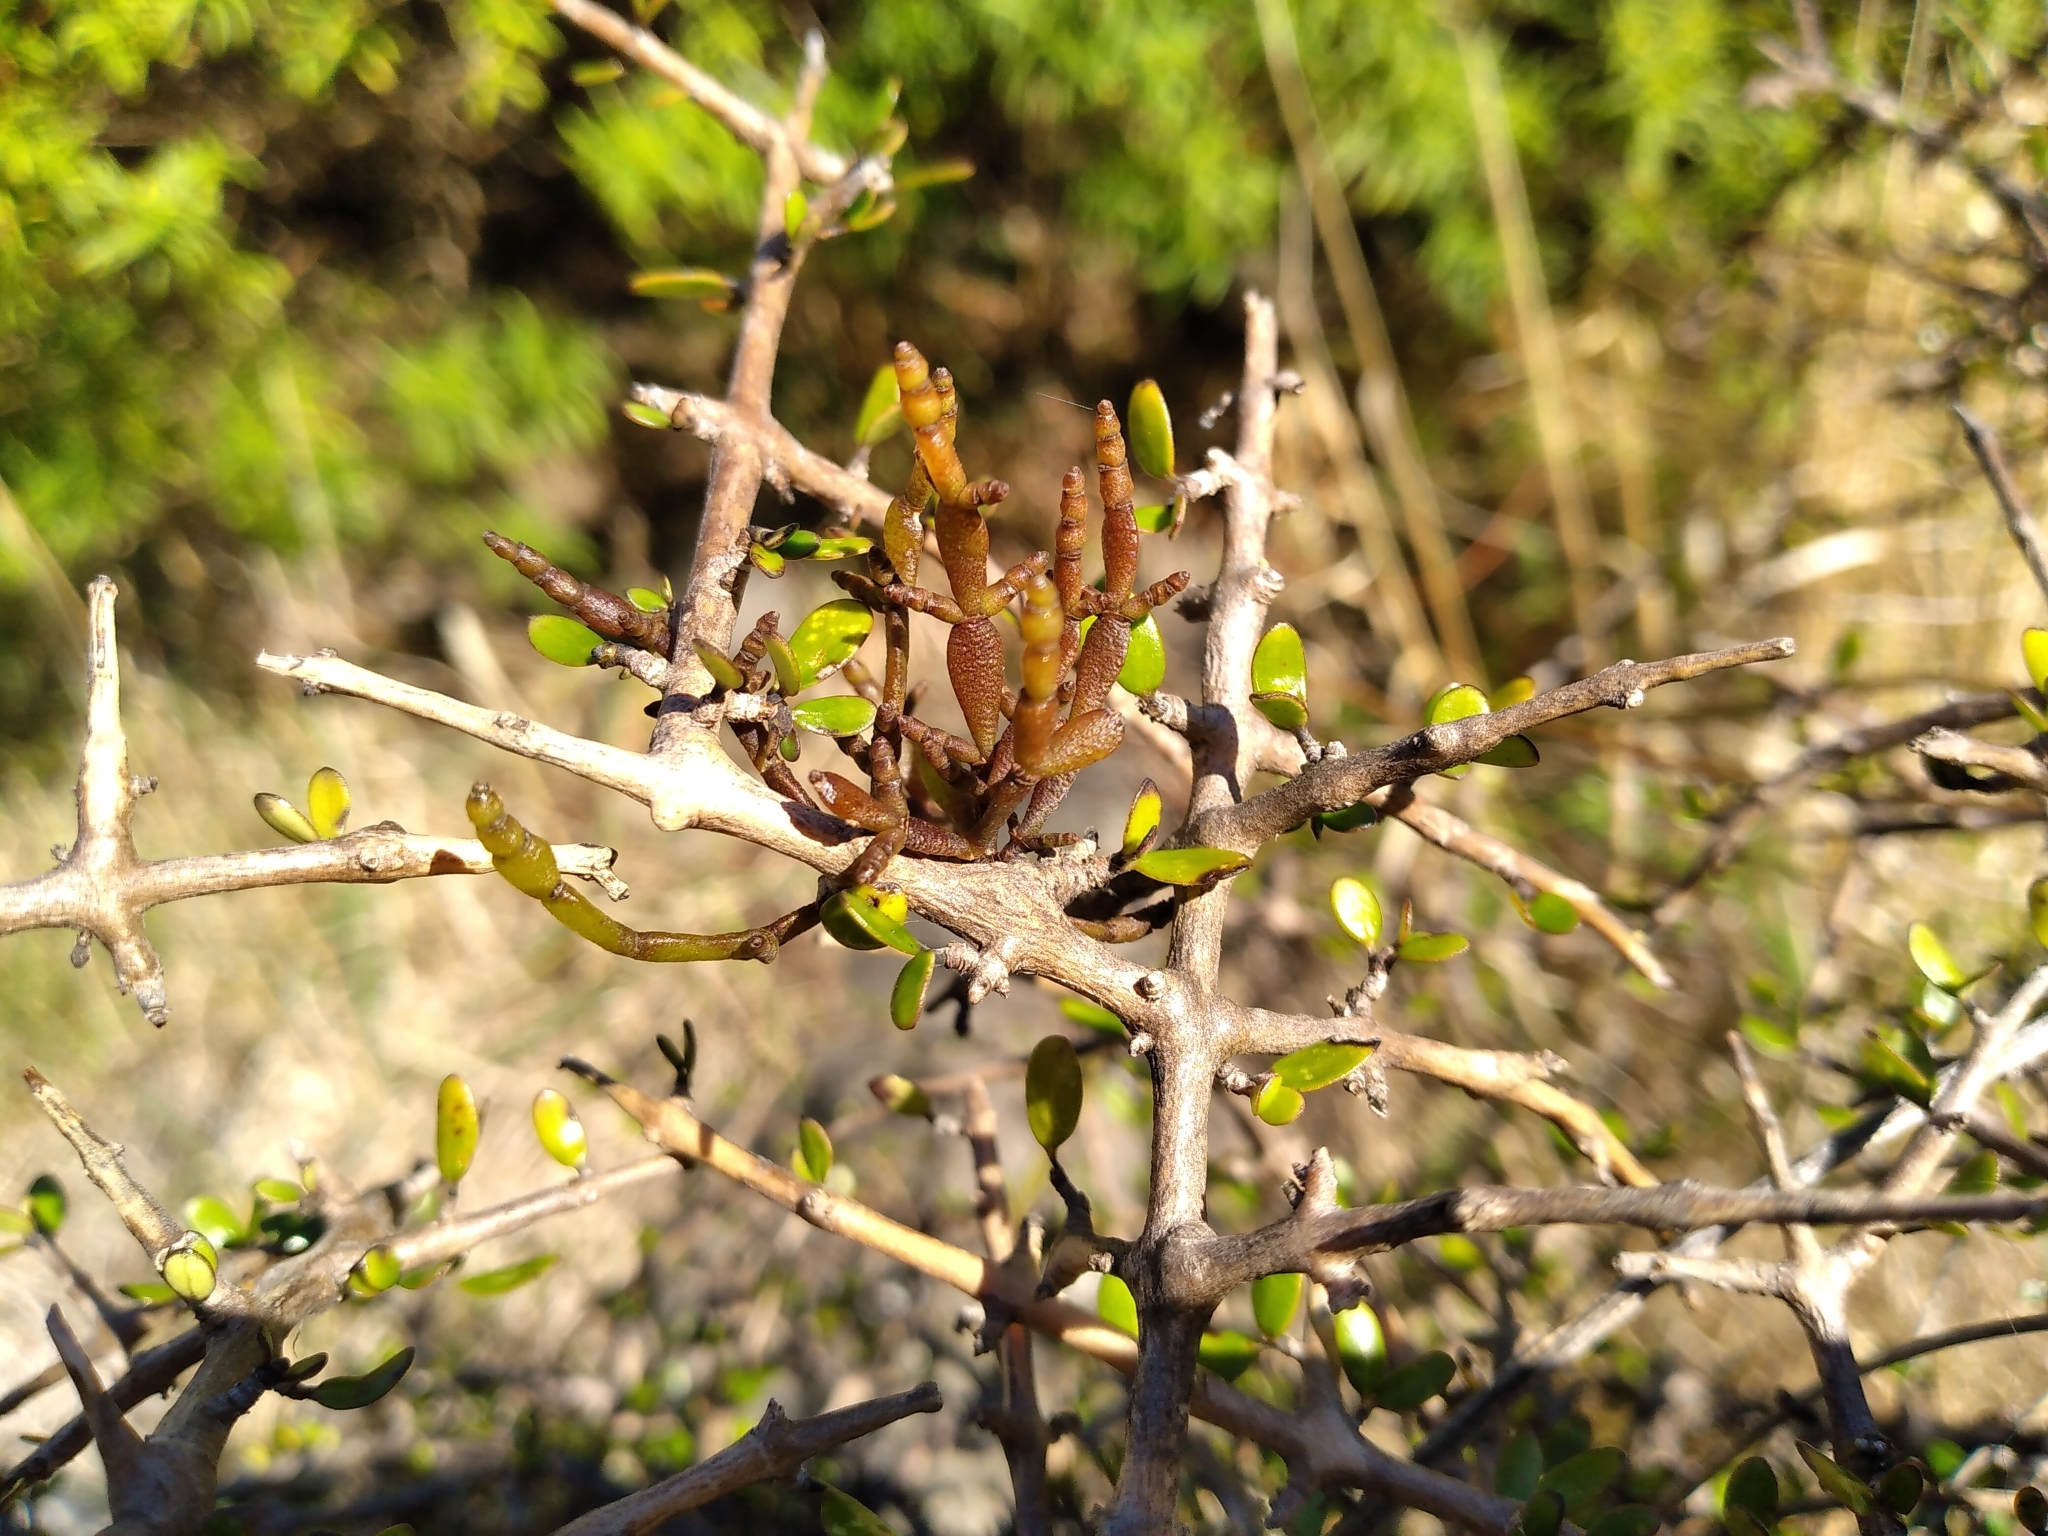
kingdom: Plantae
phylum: Tracheophyta
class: Magnoliopsida
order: Santalales
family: Viscaceae
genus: Korthalsella
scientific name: Korthalsella clavata
